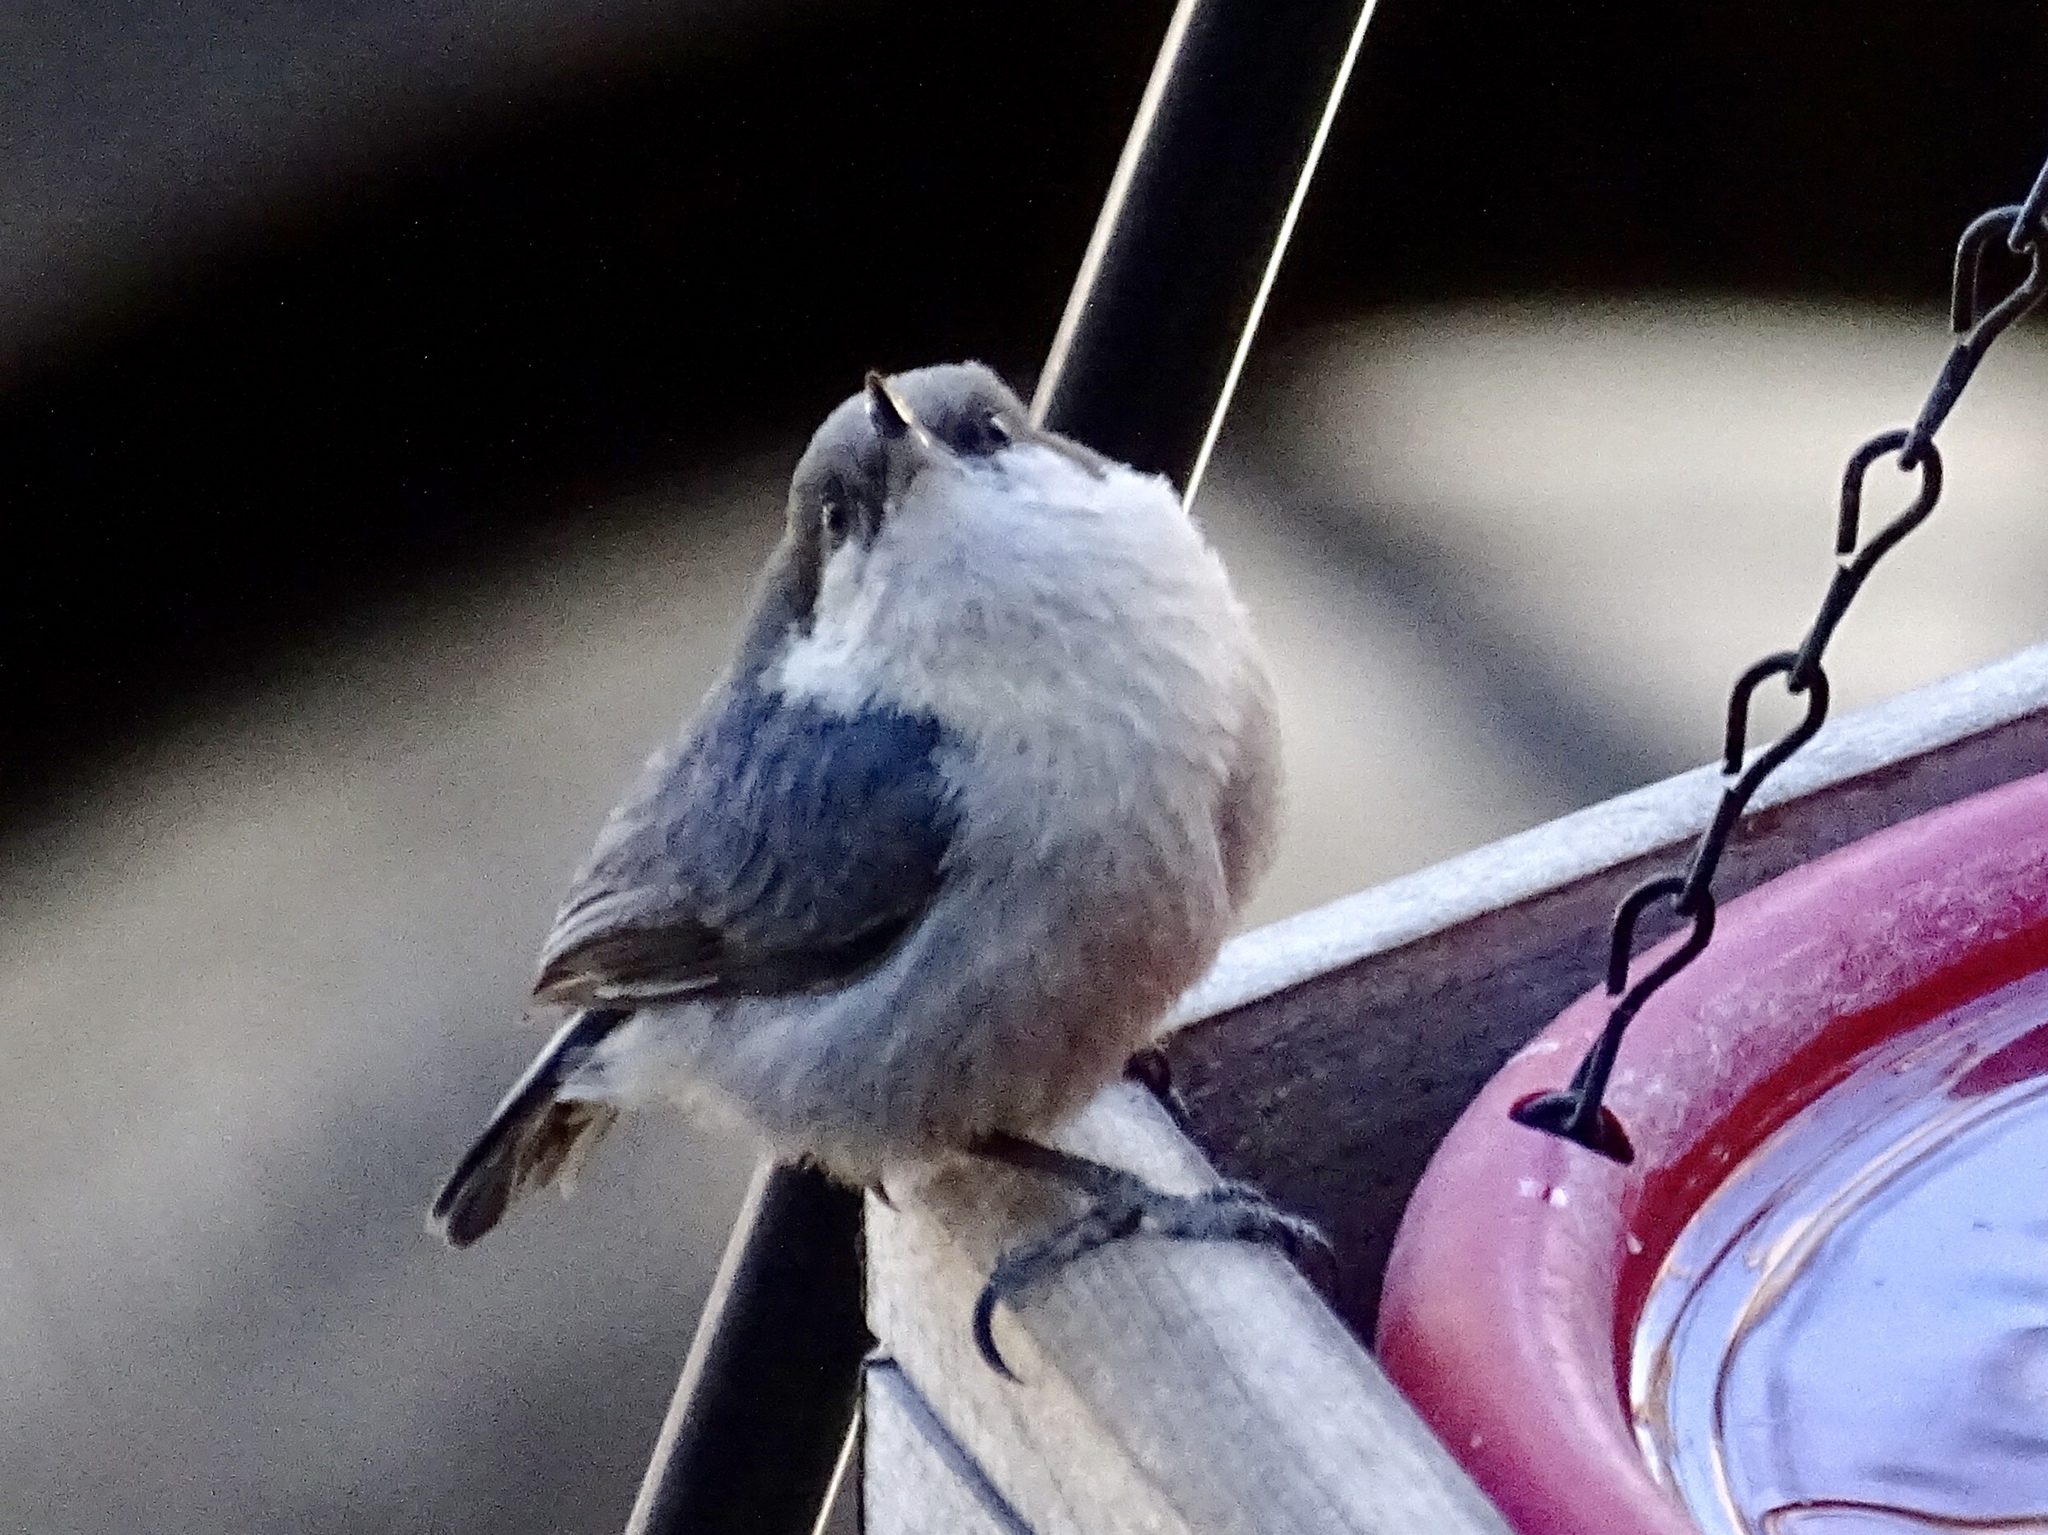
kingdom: Animalia
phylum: Chordata
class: Aves
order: Passeriformes
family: Sittidae
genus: Sitta
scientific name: Sitta pygmaea
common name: Pygmy nuthatch
